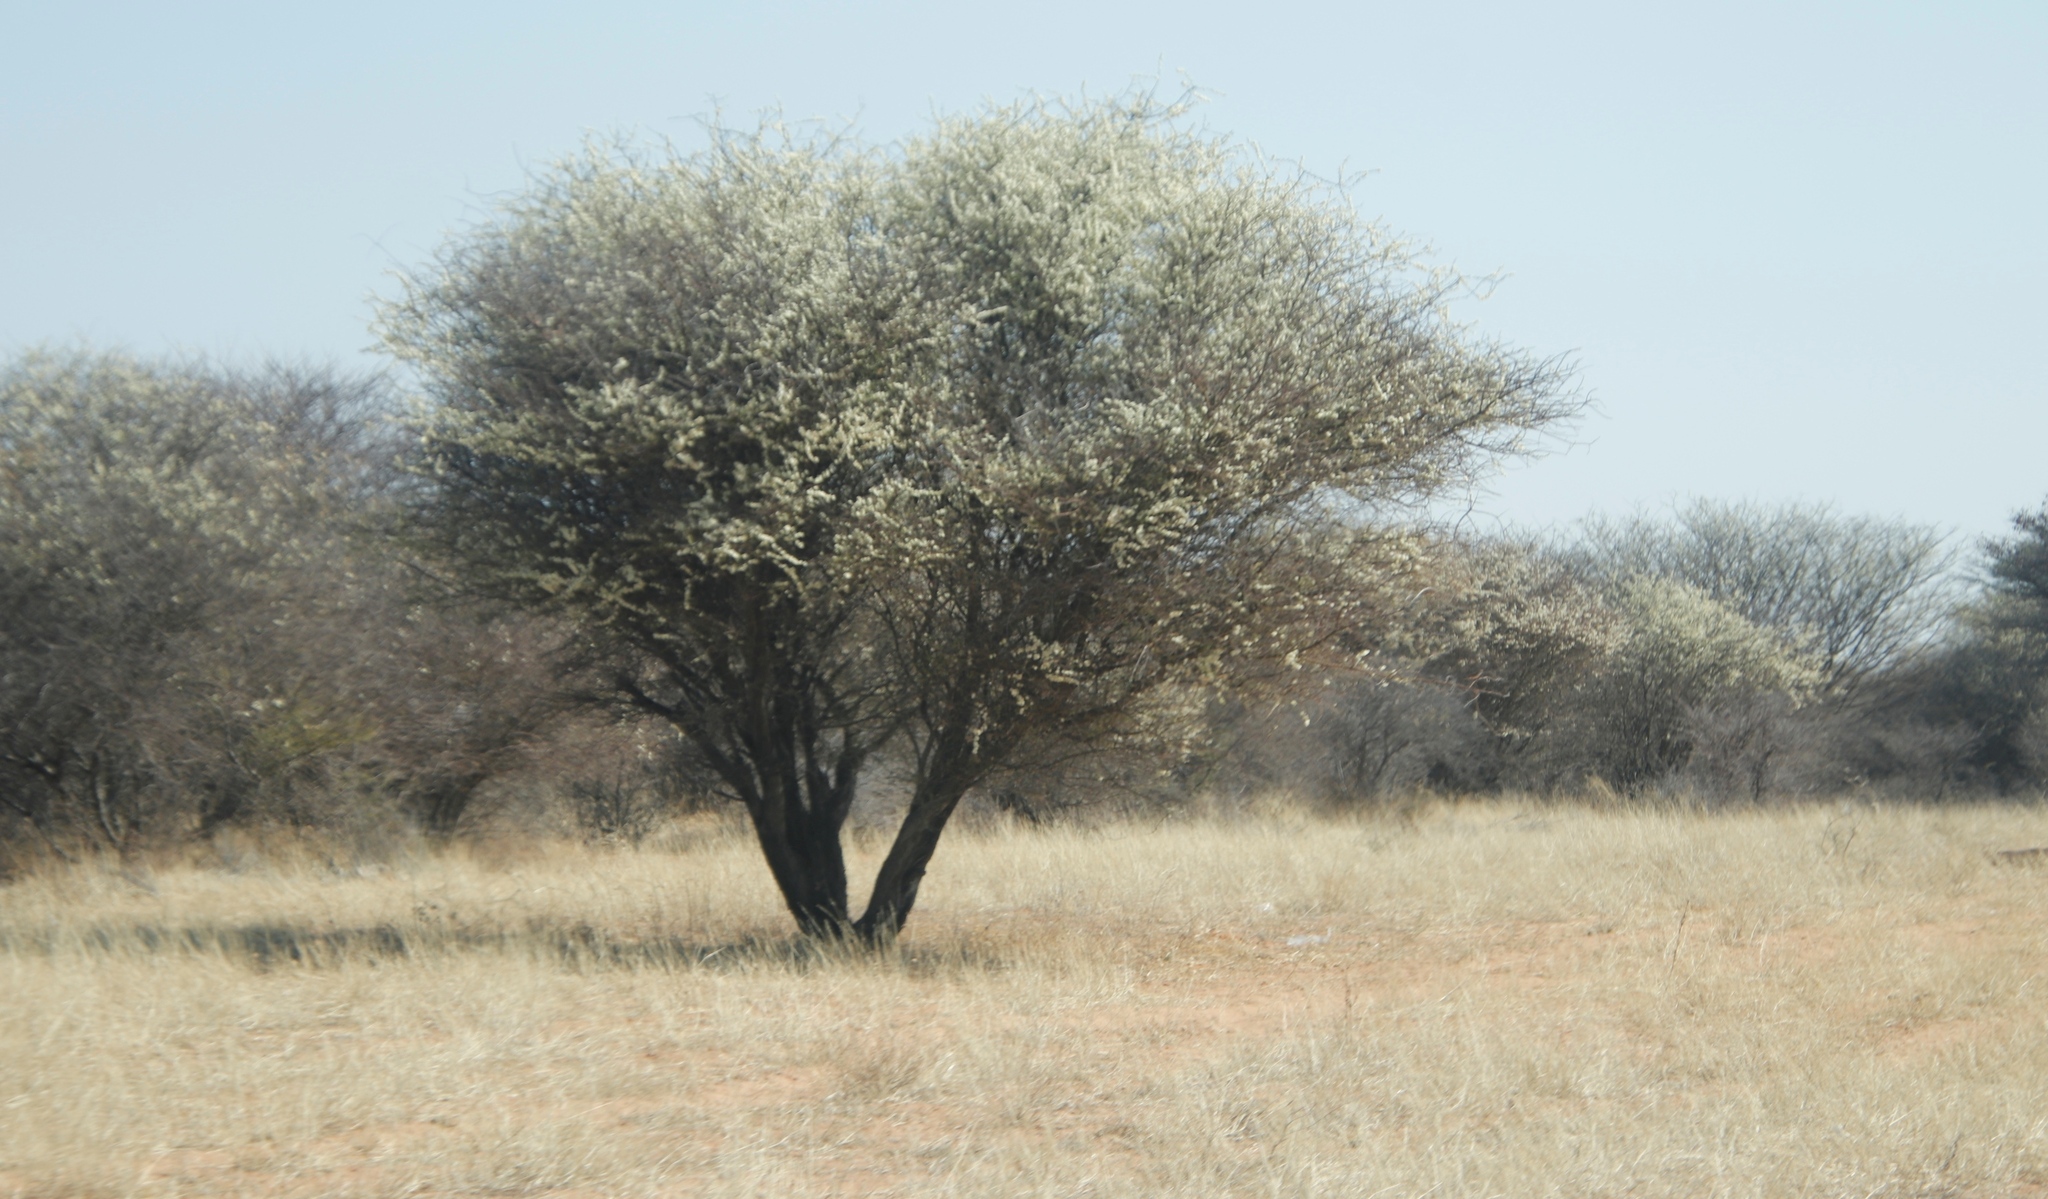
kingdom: Plantae
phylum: Tracheophyta
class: Magnoliopsida
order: Fabales
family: Fabaceae
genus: Senegalia
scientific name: Senegalia mellifera
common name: Hookthorn
